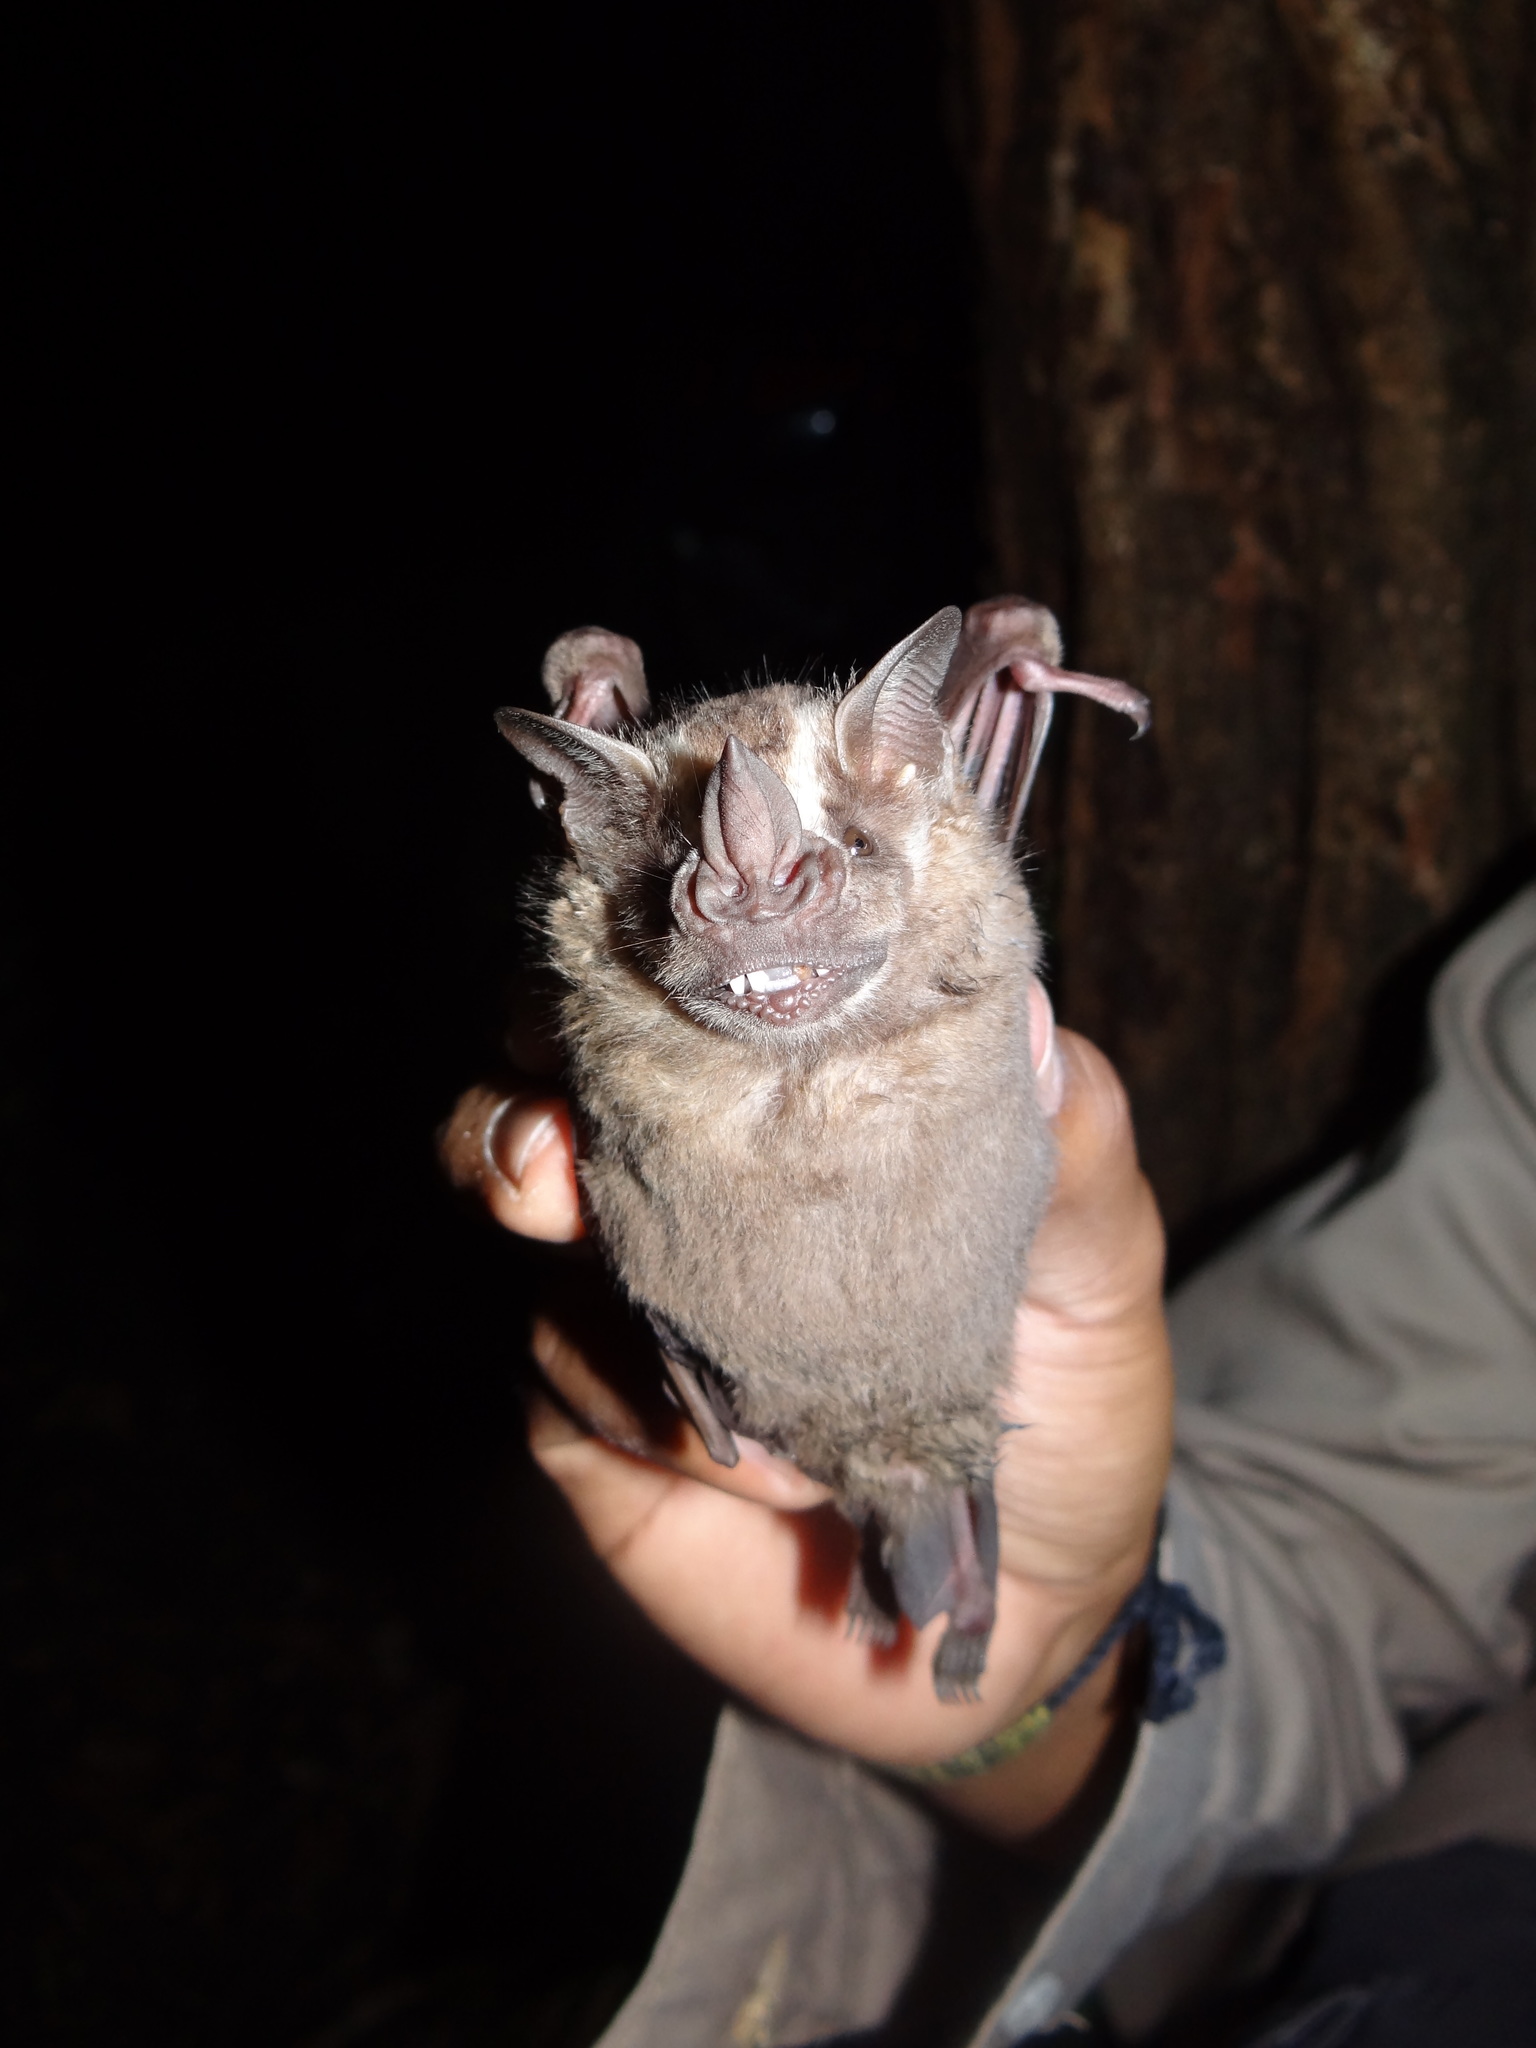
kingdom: Animalia
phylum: Chordata
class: Mammalia
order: Chiroptera
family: Phyllostomidae
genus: Artibeus
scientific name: Artibeus lituratus
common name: Great fruit-eating bat
